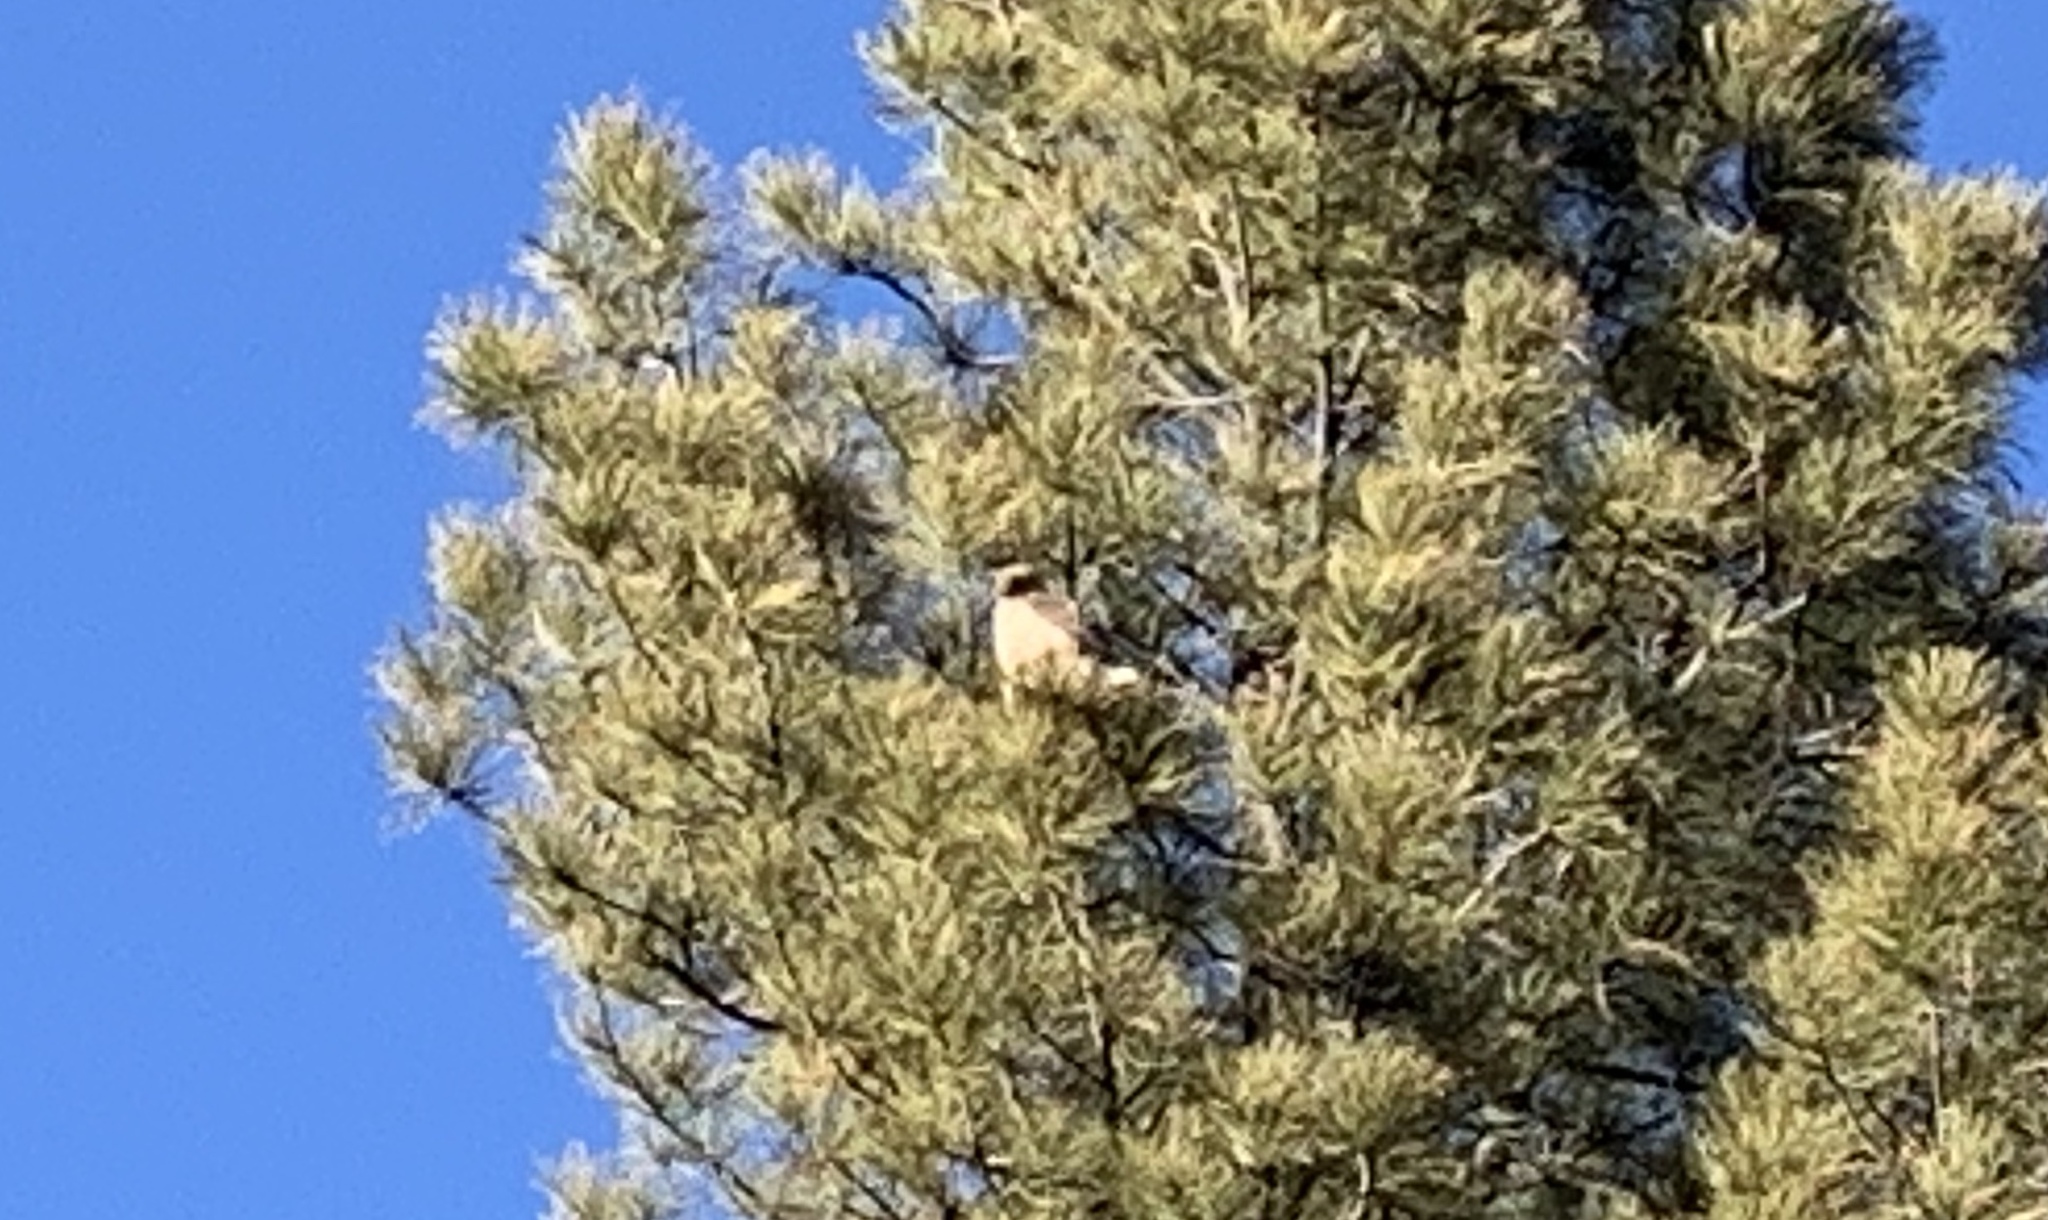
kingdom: Animalia
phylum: Chordata
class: Aves
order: Accipitriformes
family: Accipitridae
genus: Buteo
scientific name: Buteo jamaicensis
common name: Red-tailed hawk
